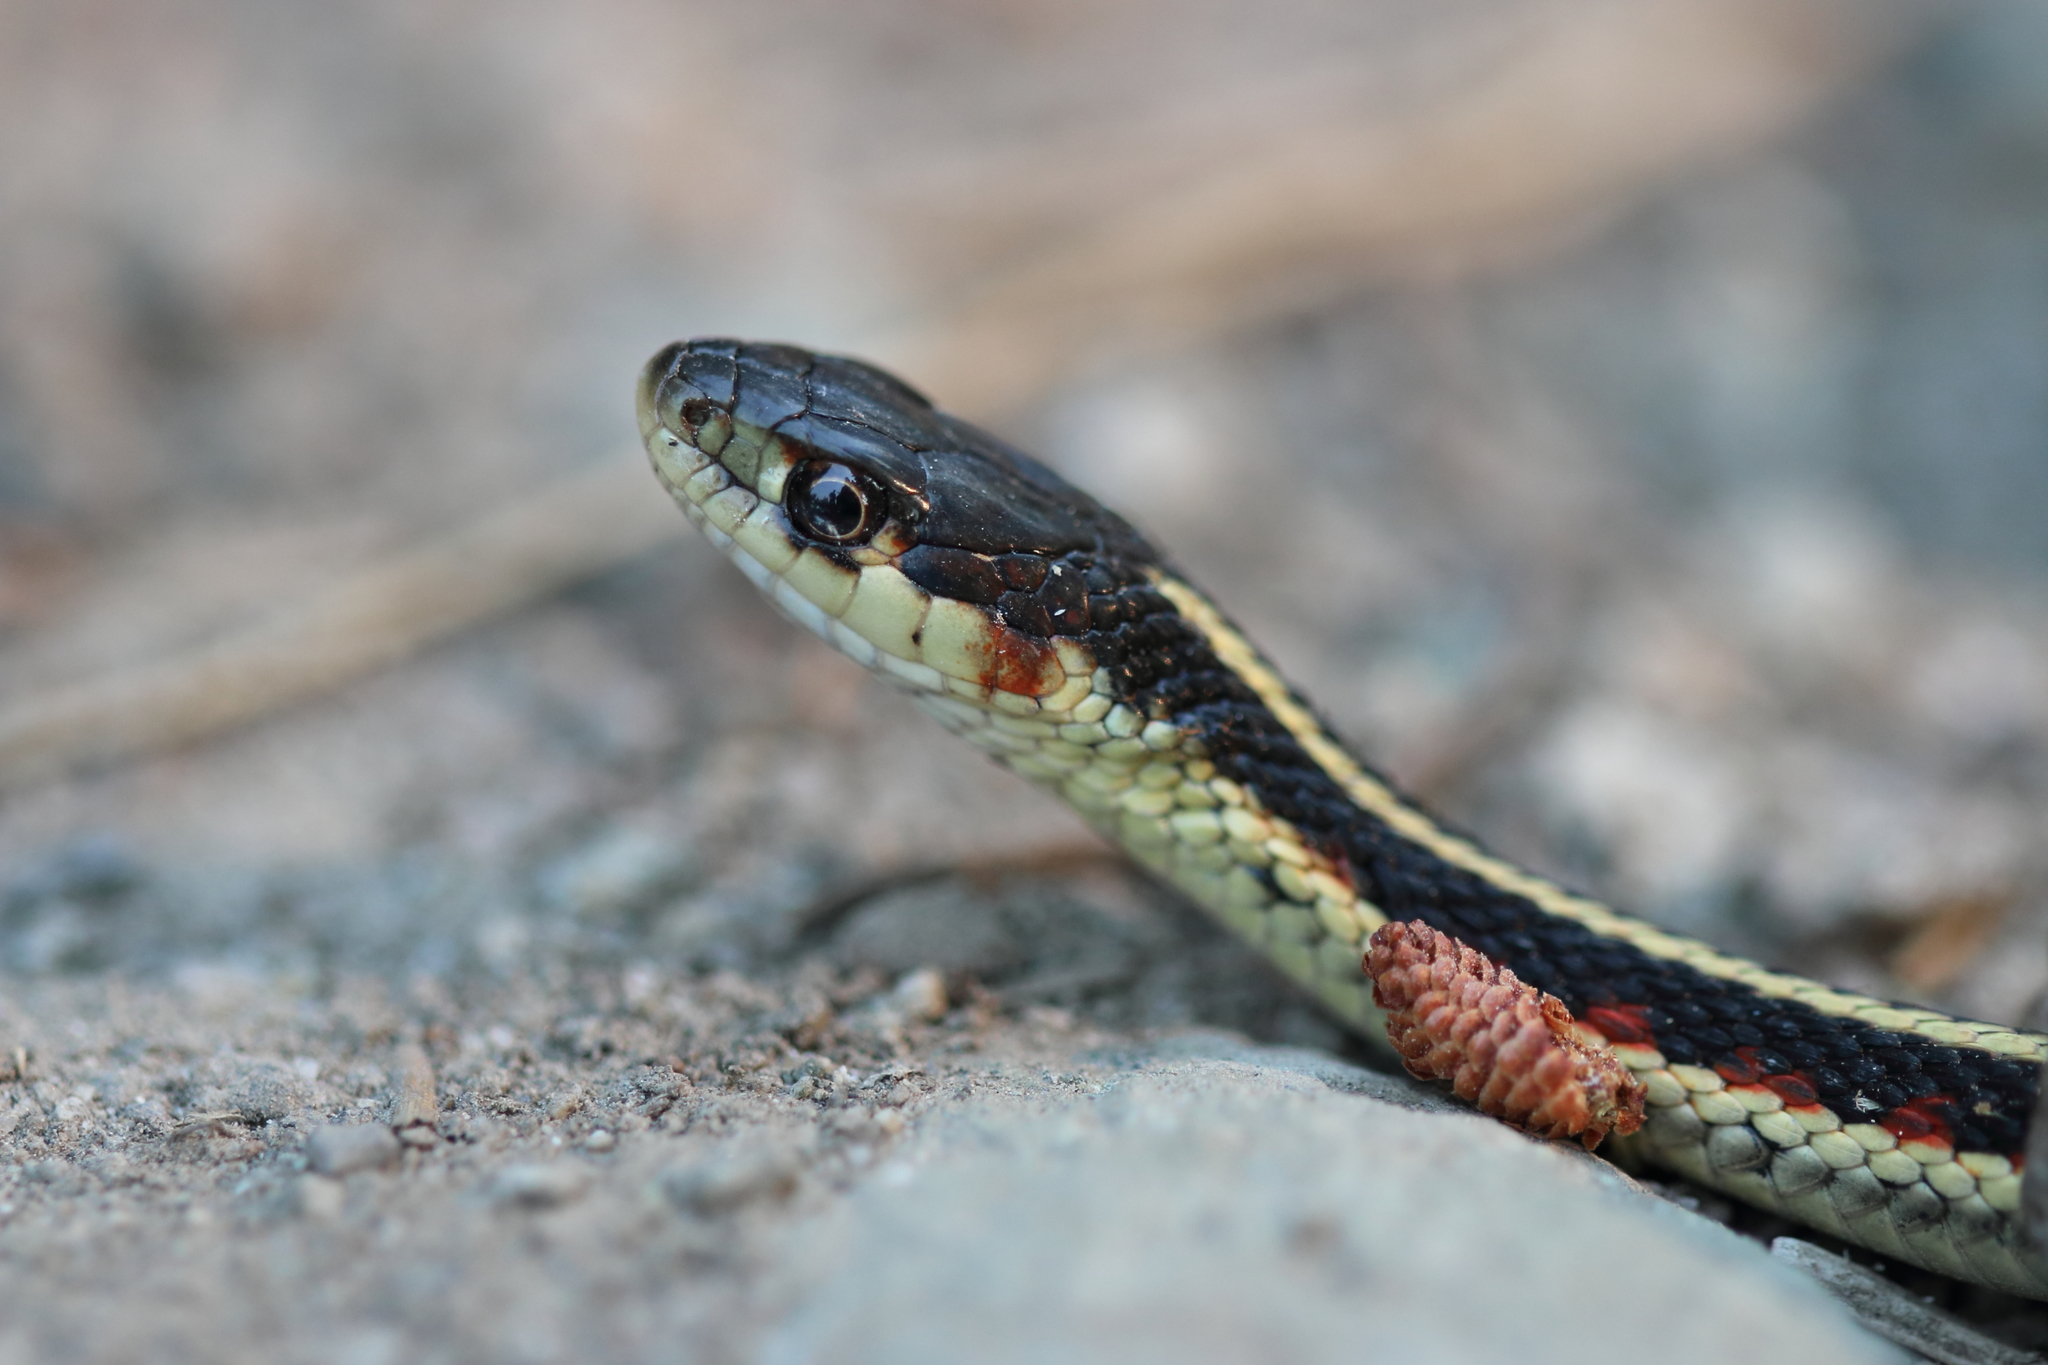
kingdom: Animalia
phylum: Chordata
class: Squamata
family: Colubridae
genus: Thamnophis
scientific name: Thamnophis sirtalis
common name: Common garter snake
